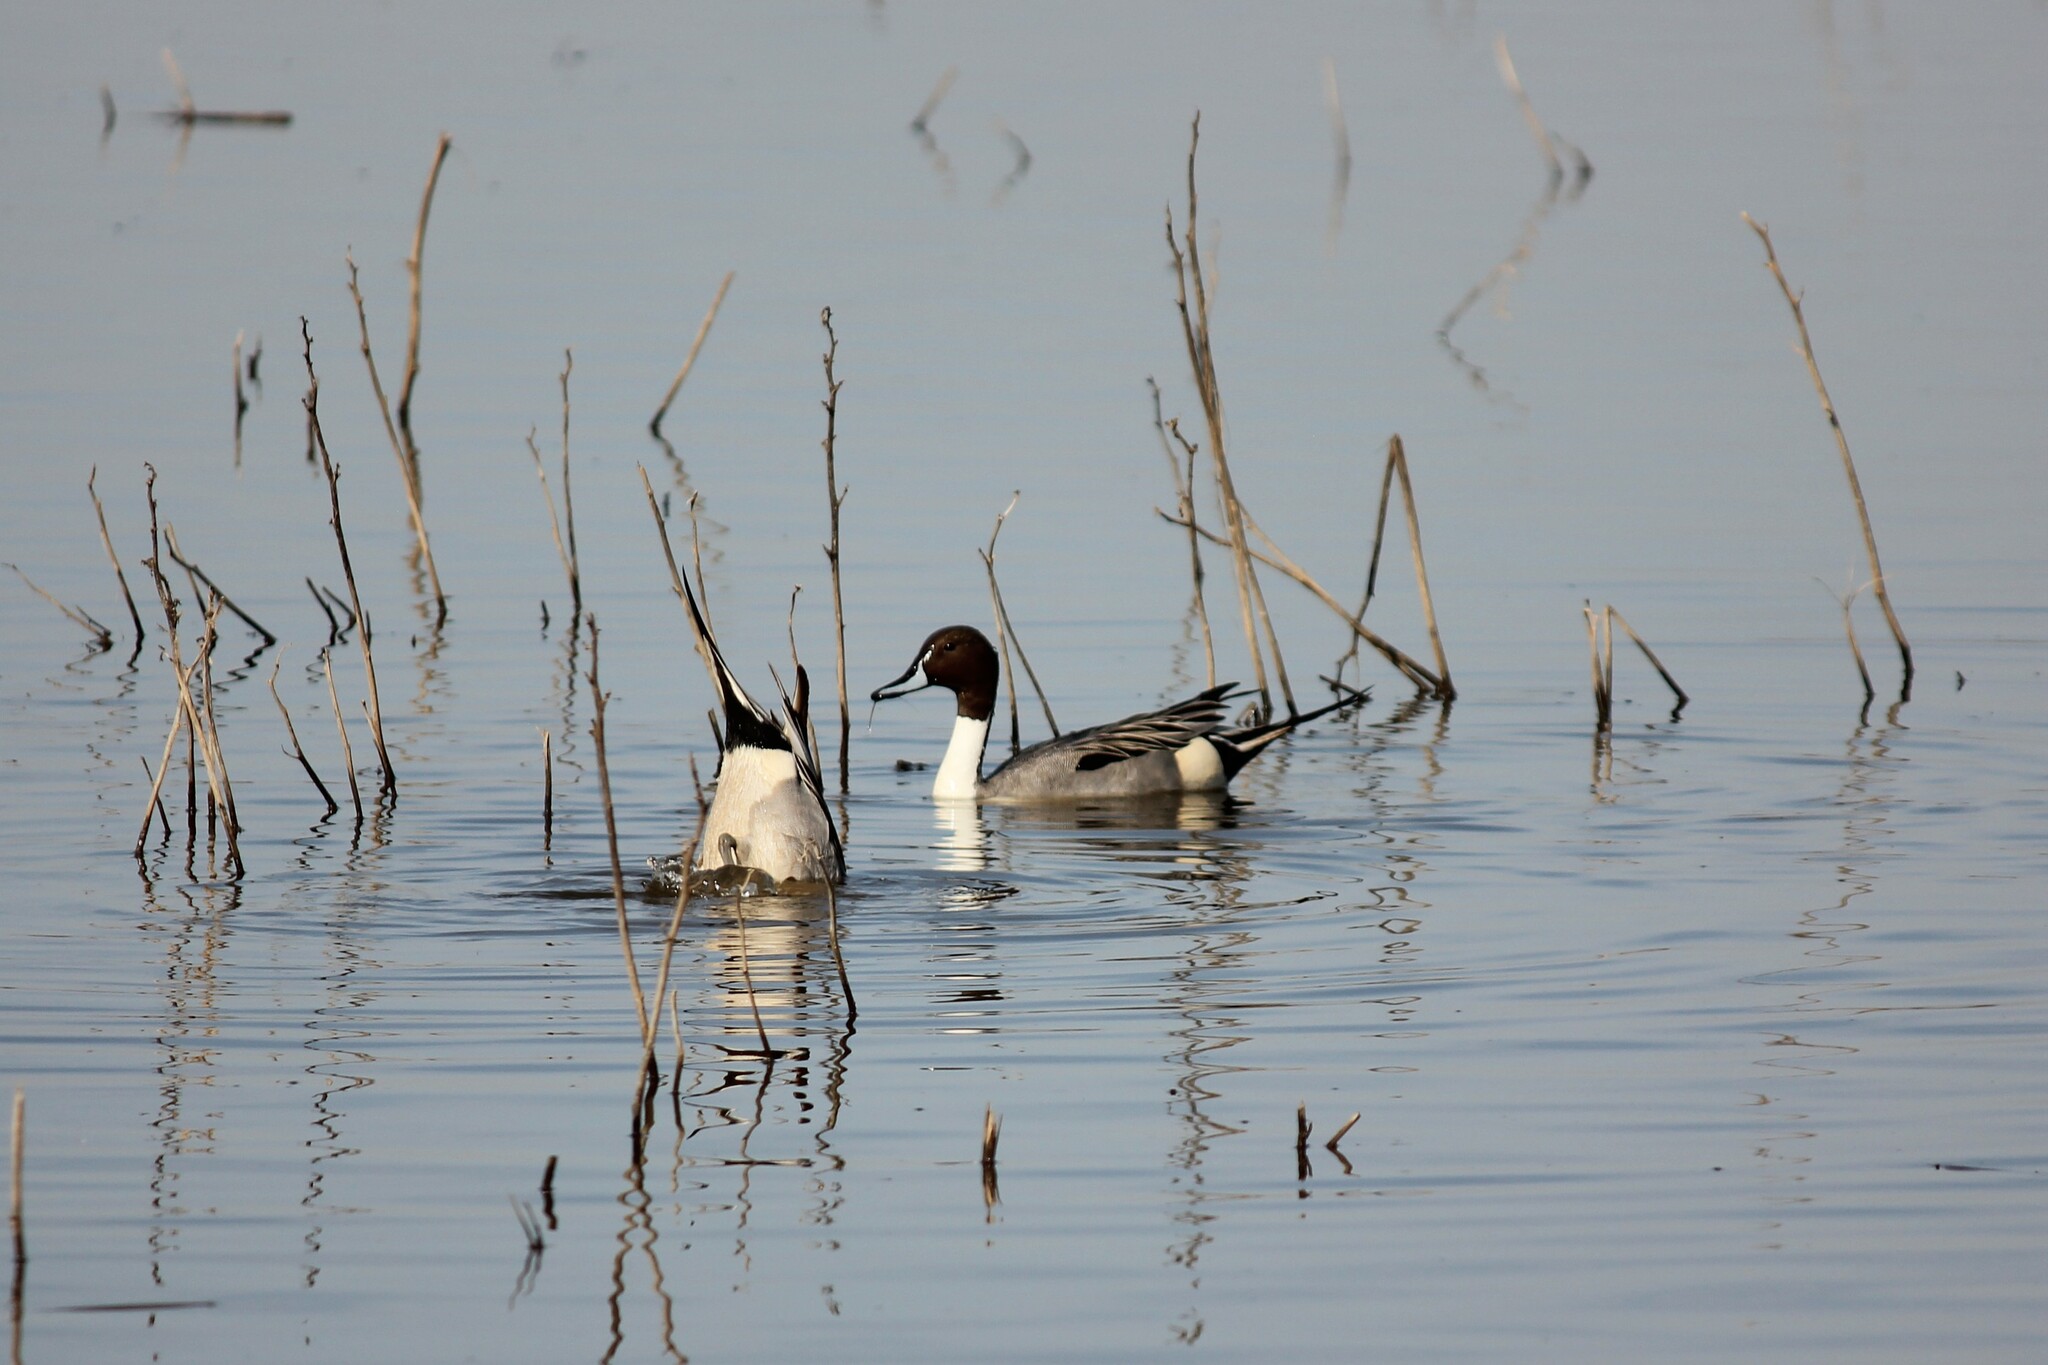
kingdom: Animalia
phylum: Chordata
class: Aves
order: Anseriformes
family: Anatidae
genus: Anas
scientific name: Anas acuta
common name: Northern pintail
